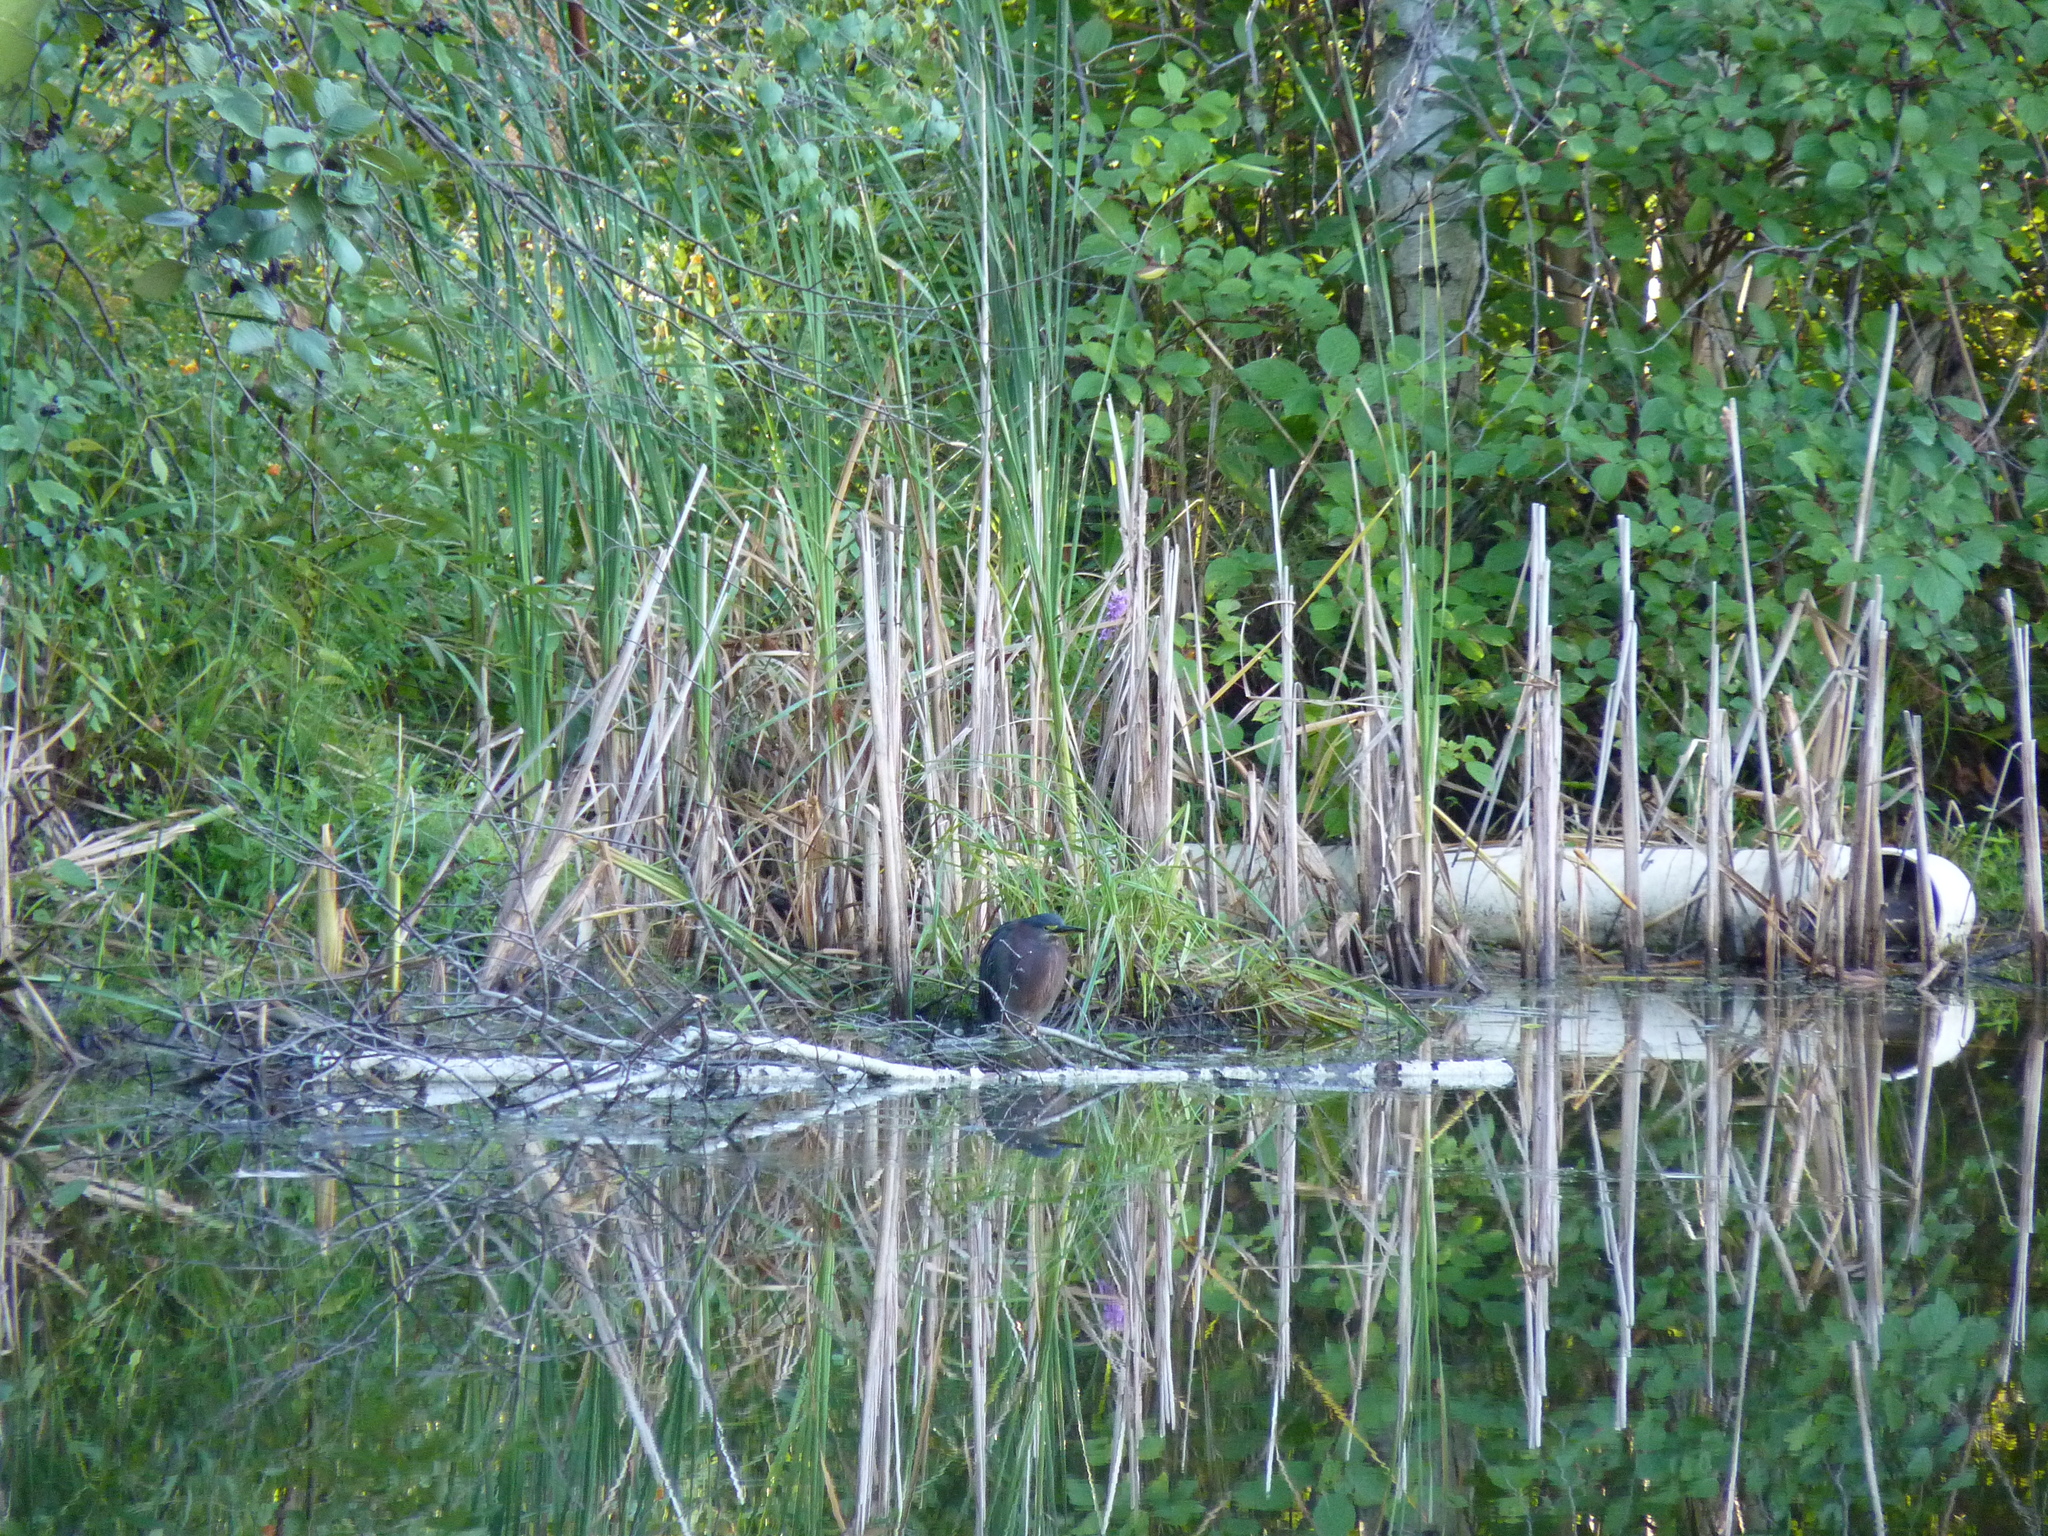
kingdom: Animalia
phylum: Chordata
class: Aves
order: Pelecaniformes
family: Ardeidae
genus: Butorides
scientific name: Butorides virescens
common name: Green heron
